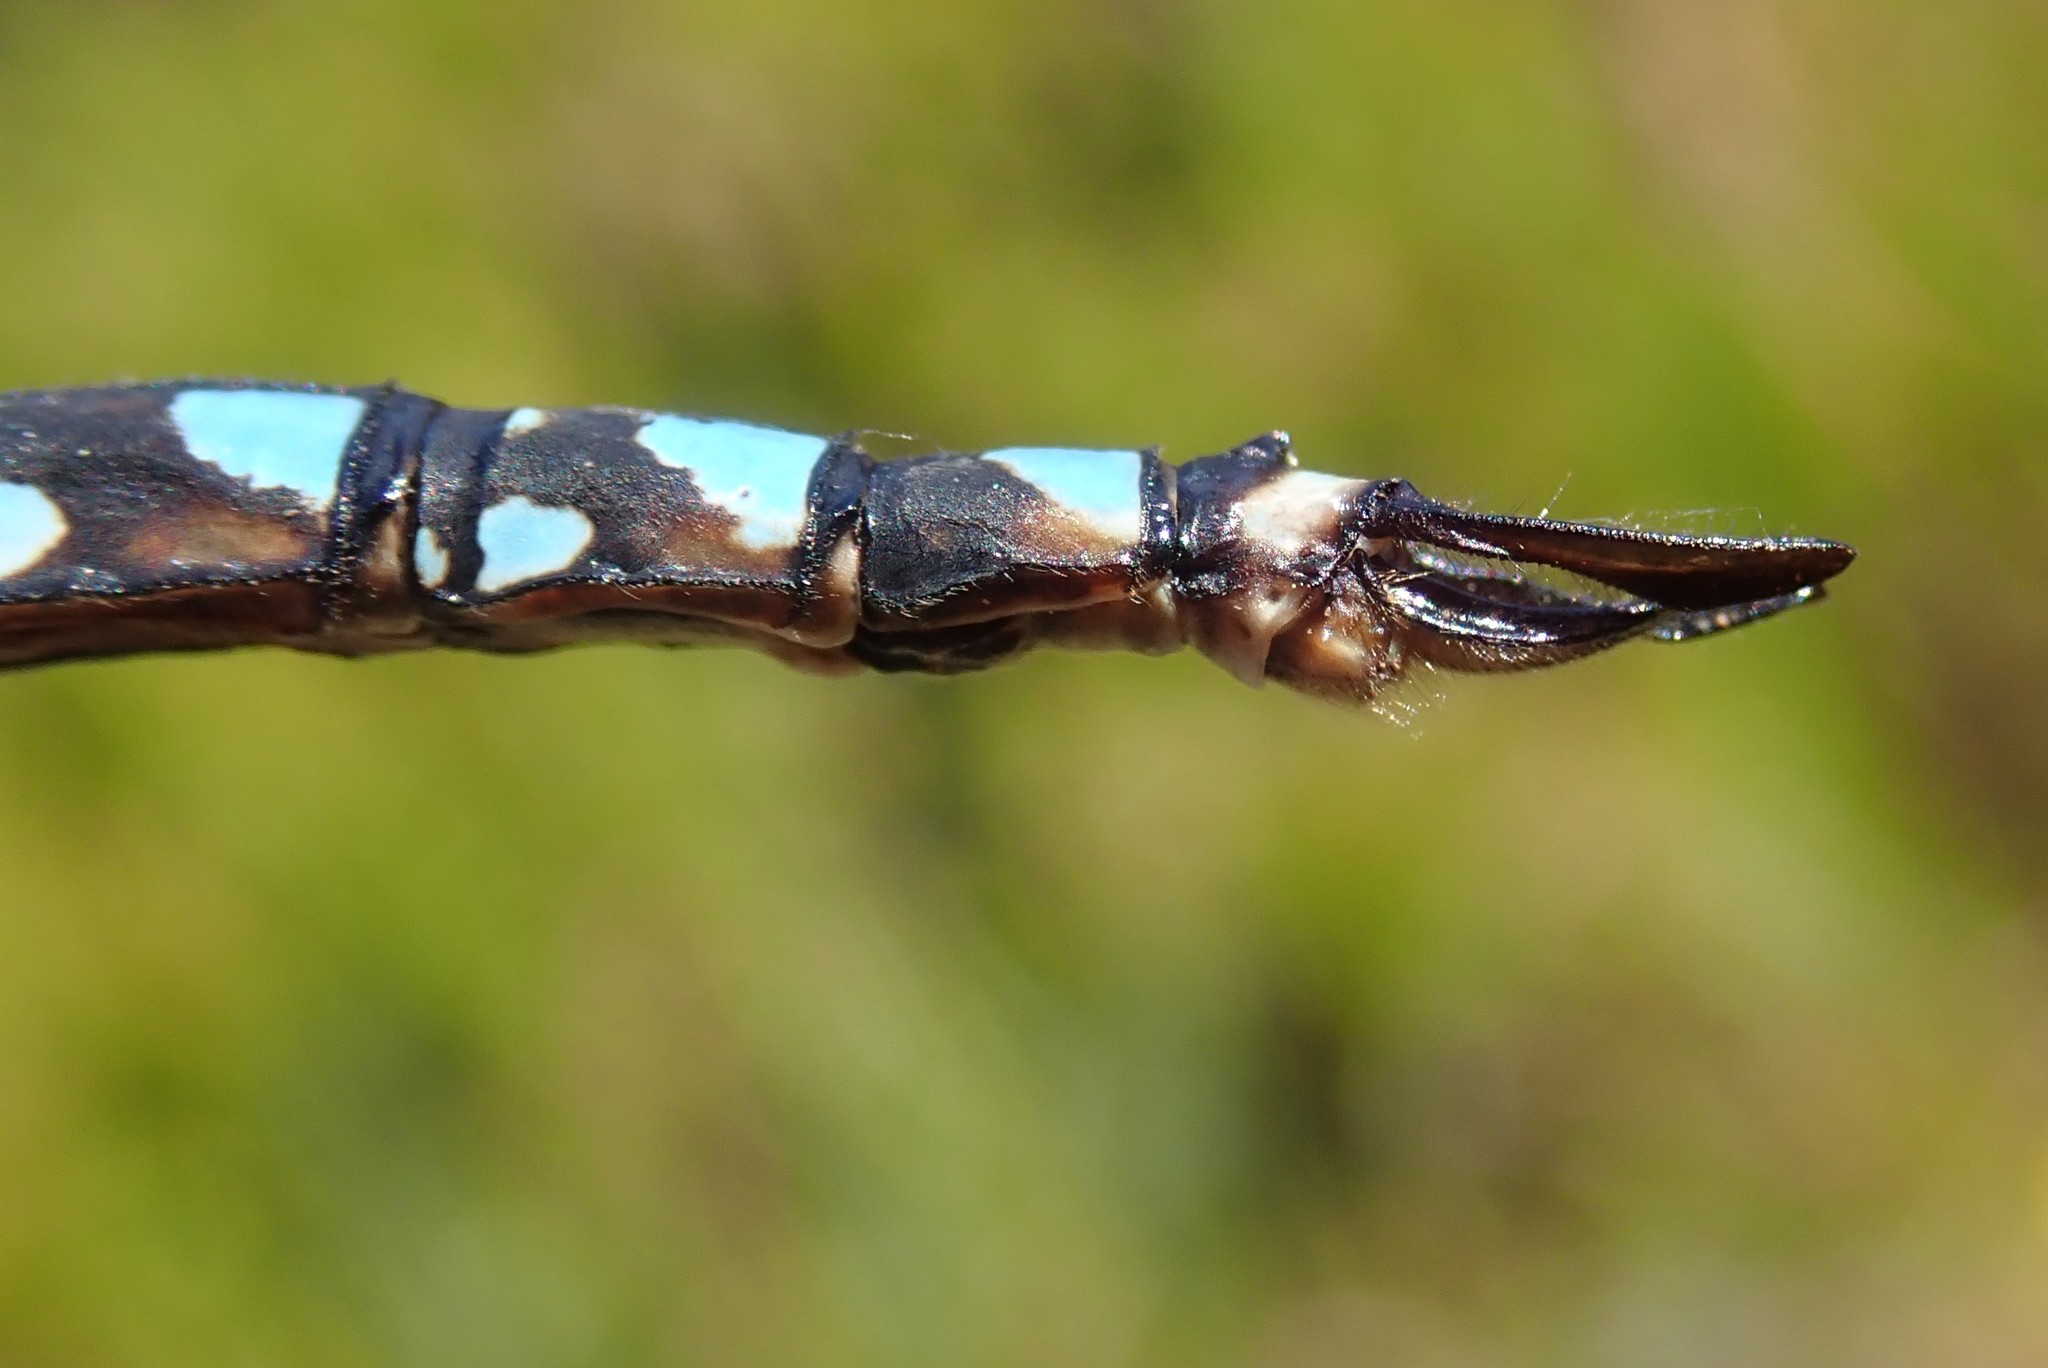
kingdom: Animalia
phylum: Arthropoda
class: Insecta
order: Odonata
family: Aeshnidae
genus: Aeshna
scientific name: Aeshna interrupta
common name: Variable darner
